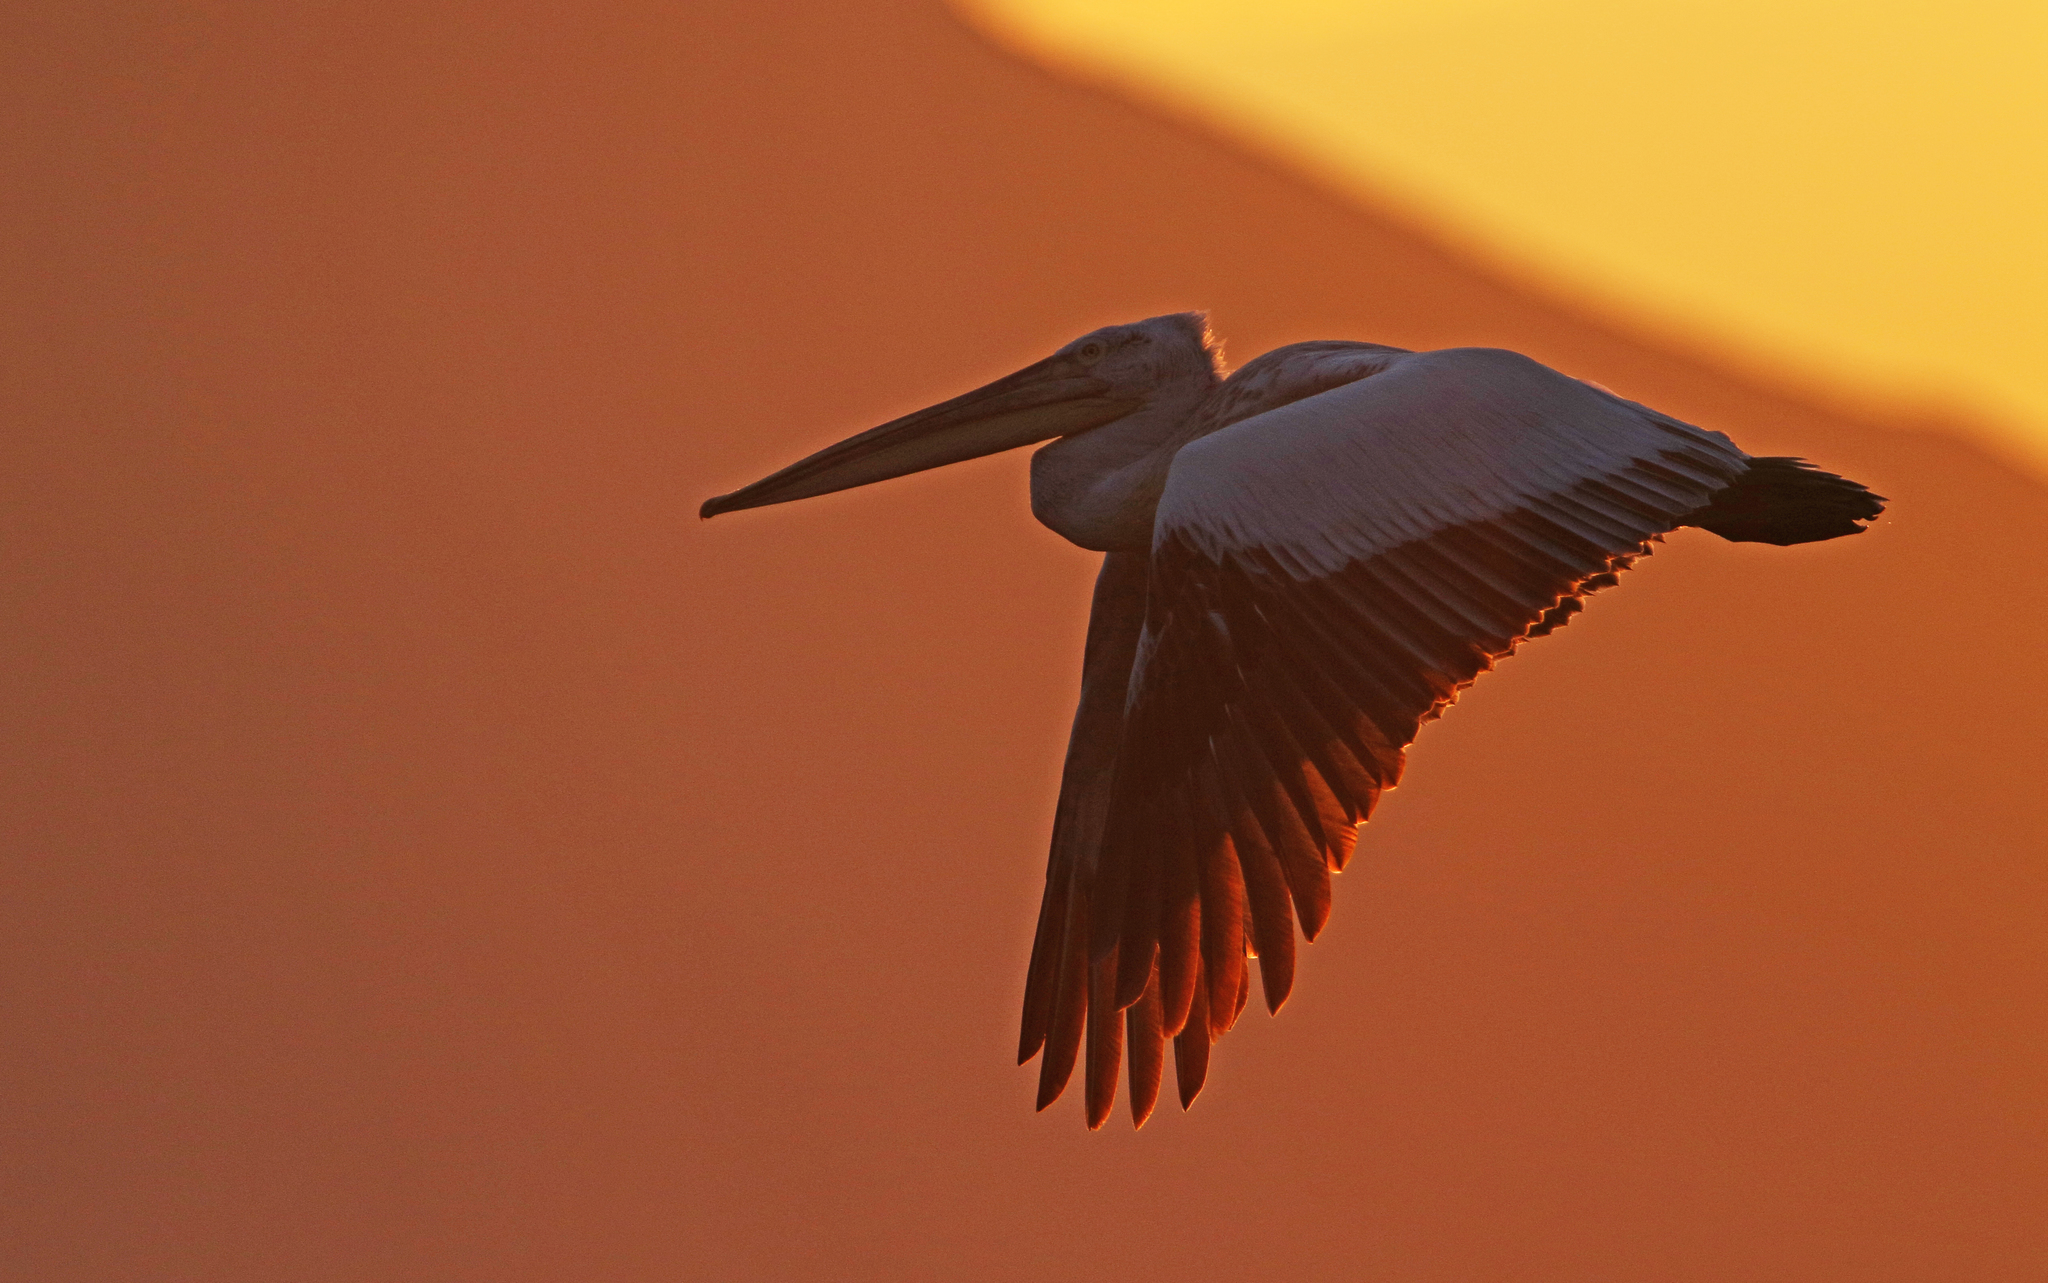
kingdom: Animalia
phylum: Chordata
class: Aves
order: Pelecaniformes
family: Pelecanidae
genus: Pelecanus
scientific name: Pelecanus crispus
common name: Dalmatian pelican
